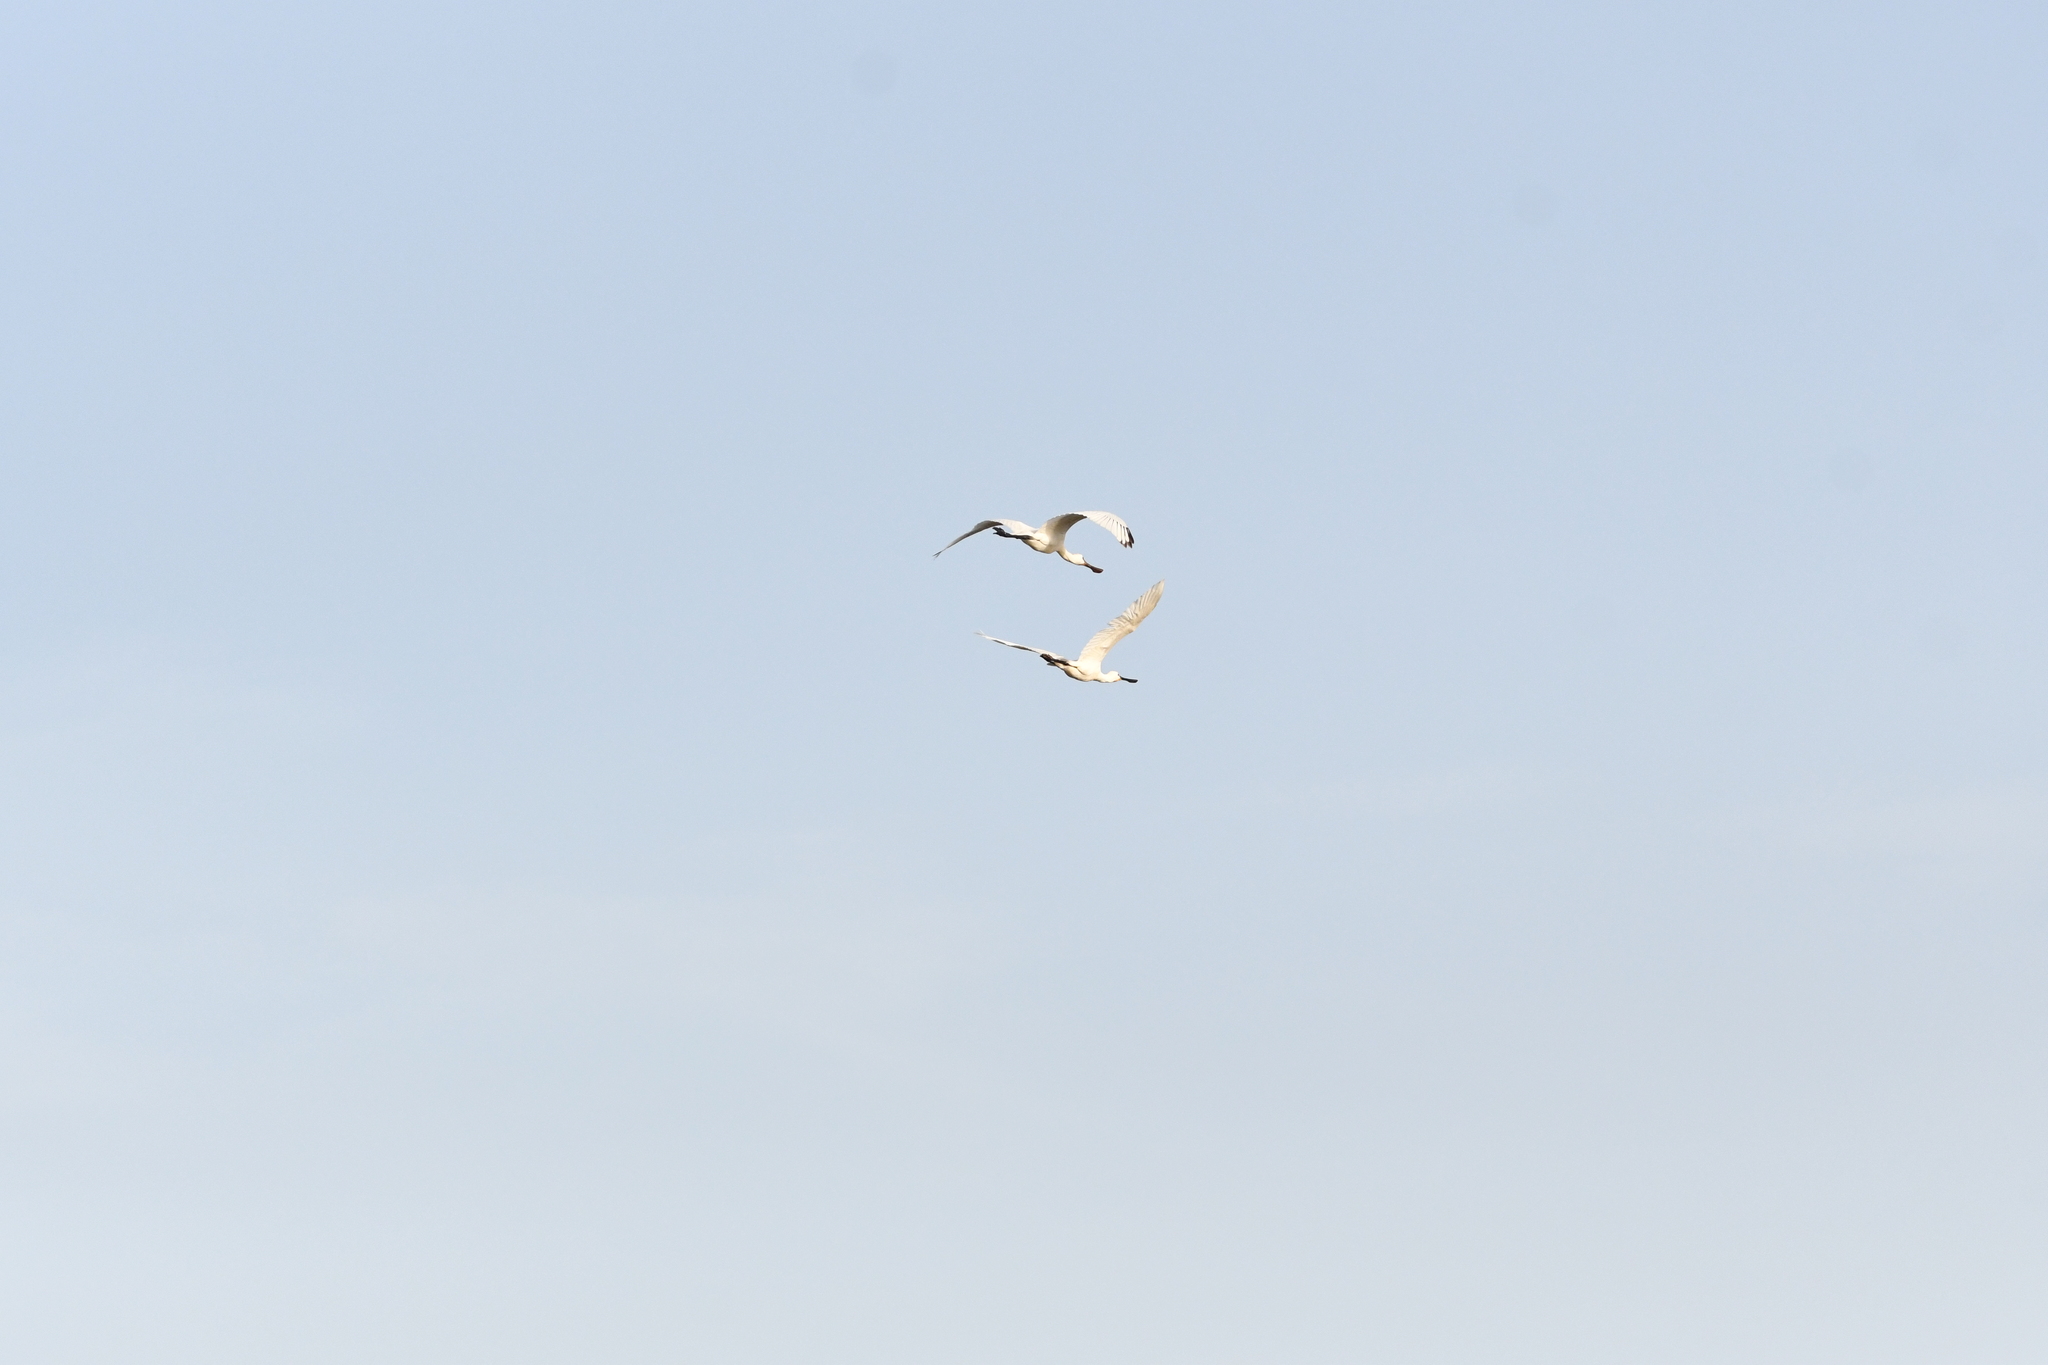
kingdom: Animalia
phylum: Chordata
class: Aves
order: Pelecaniformes
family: Threskiornithidae
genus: Platalea
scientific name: Platalea leucorodia
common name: Eurasian spoonbill
